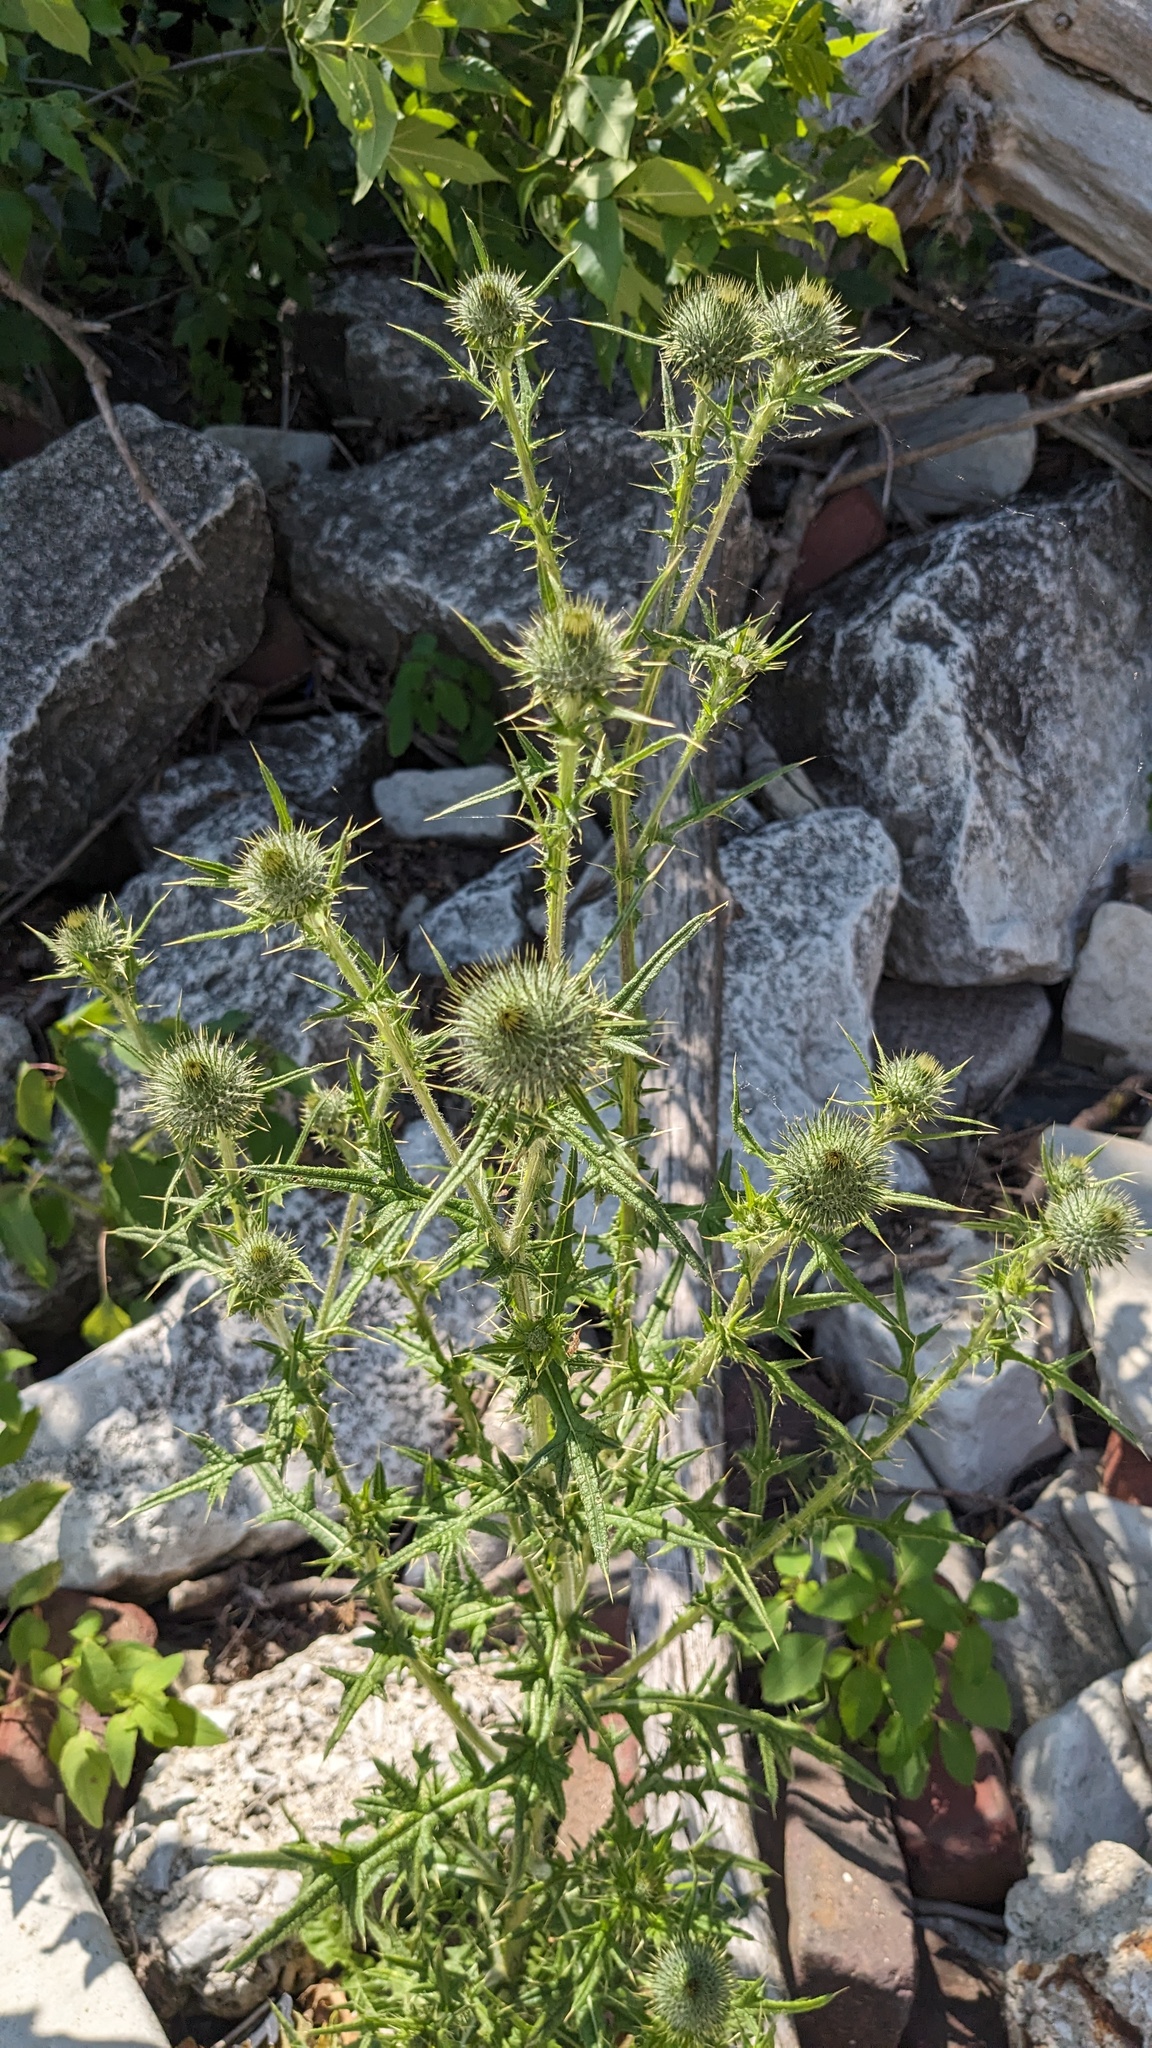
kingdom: Plantae
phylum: Tracheophyta
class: Magnoliopsida
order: Asterales
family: Asteraceae
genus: Cirsium
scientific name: Cirsium vulgare
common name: Bull thistle
